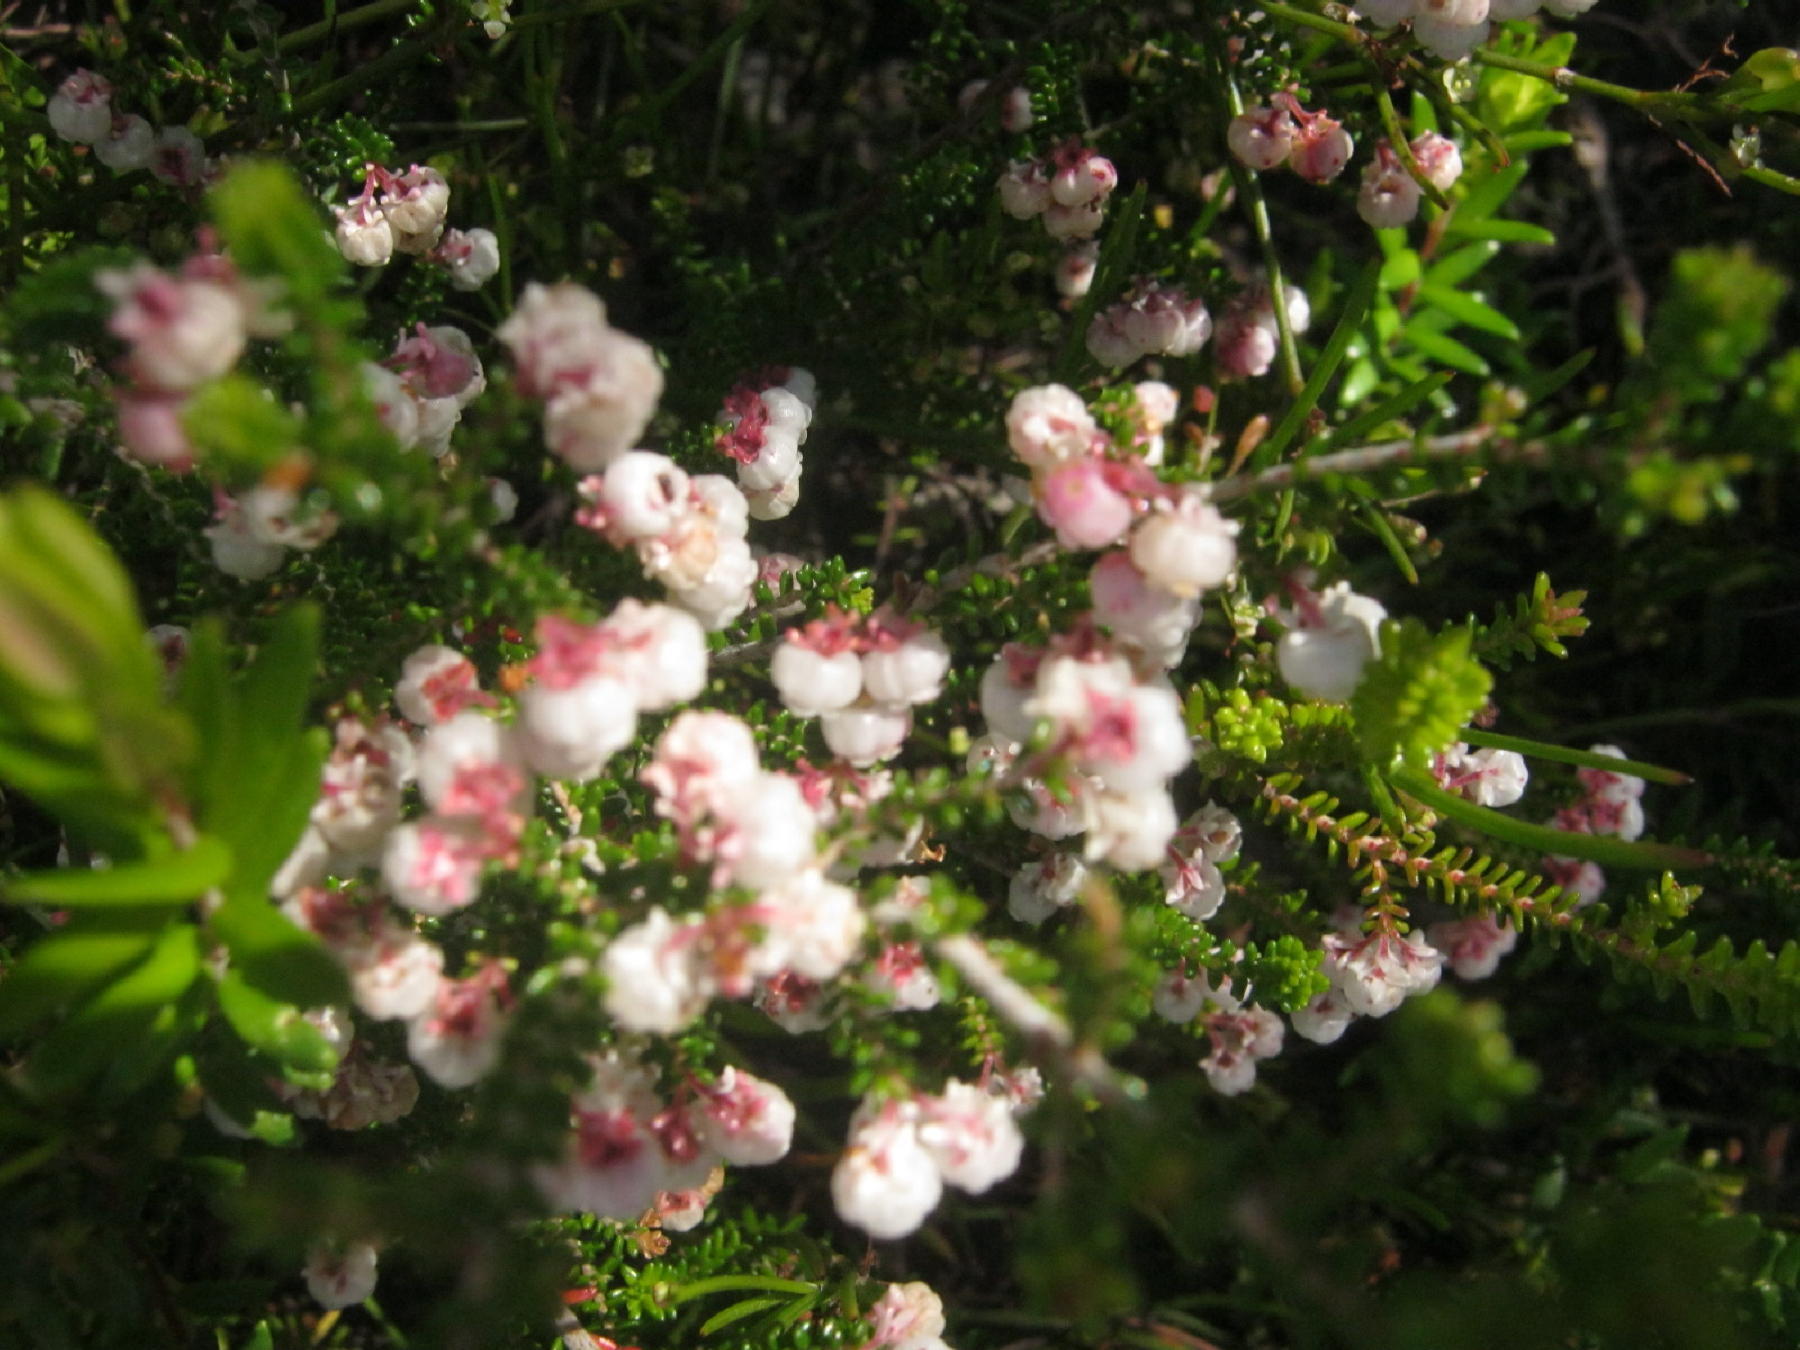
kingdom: Plantae
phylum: Tracheophyta
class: Magnoliopsida
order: Ericales
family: Ericaceae
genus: Erica
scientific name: Erica formosa
